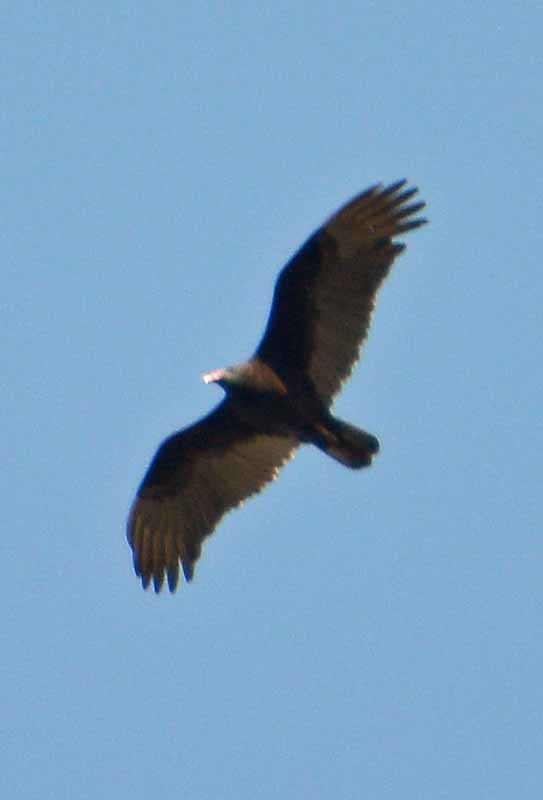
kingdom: Animalia
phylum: Chordata
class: Aves
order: Accipitriformes
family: Cathartidae
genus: Cathartes
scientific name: Cathartes aura
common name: Turkey vulture
